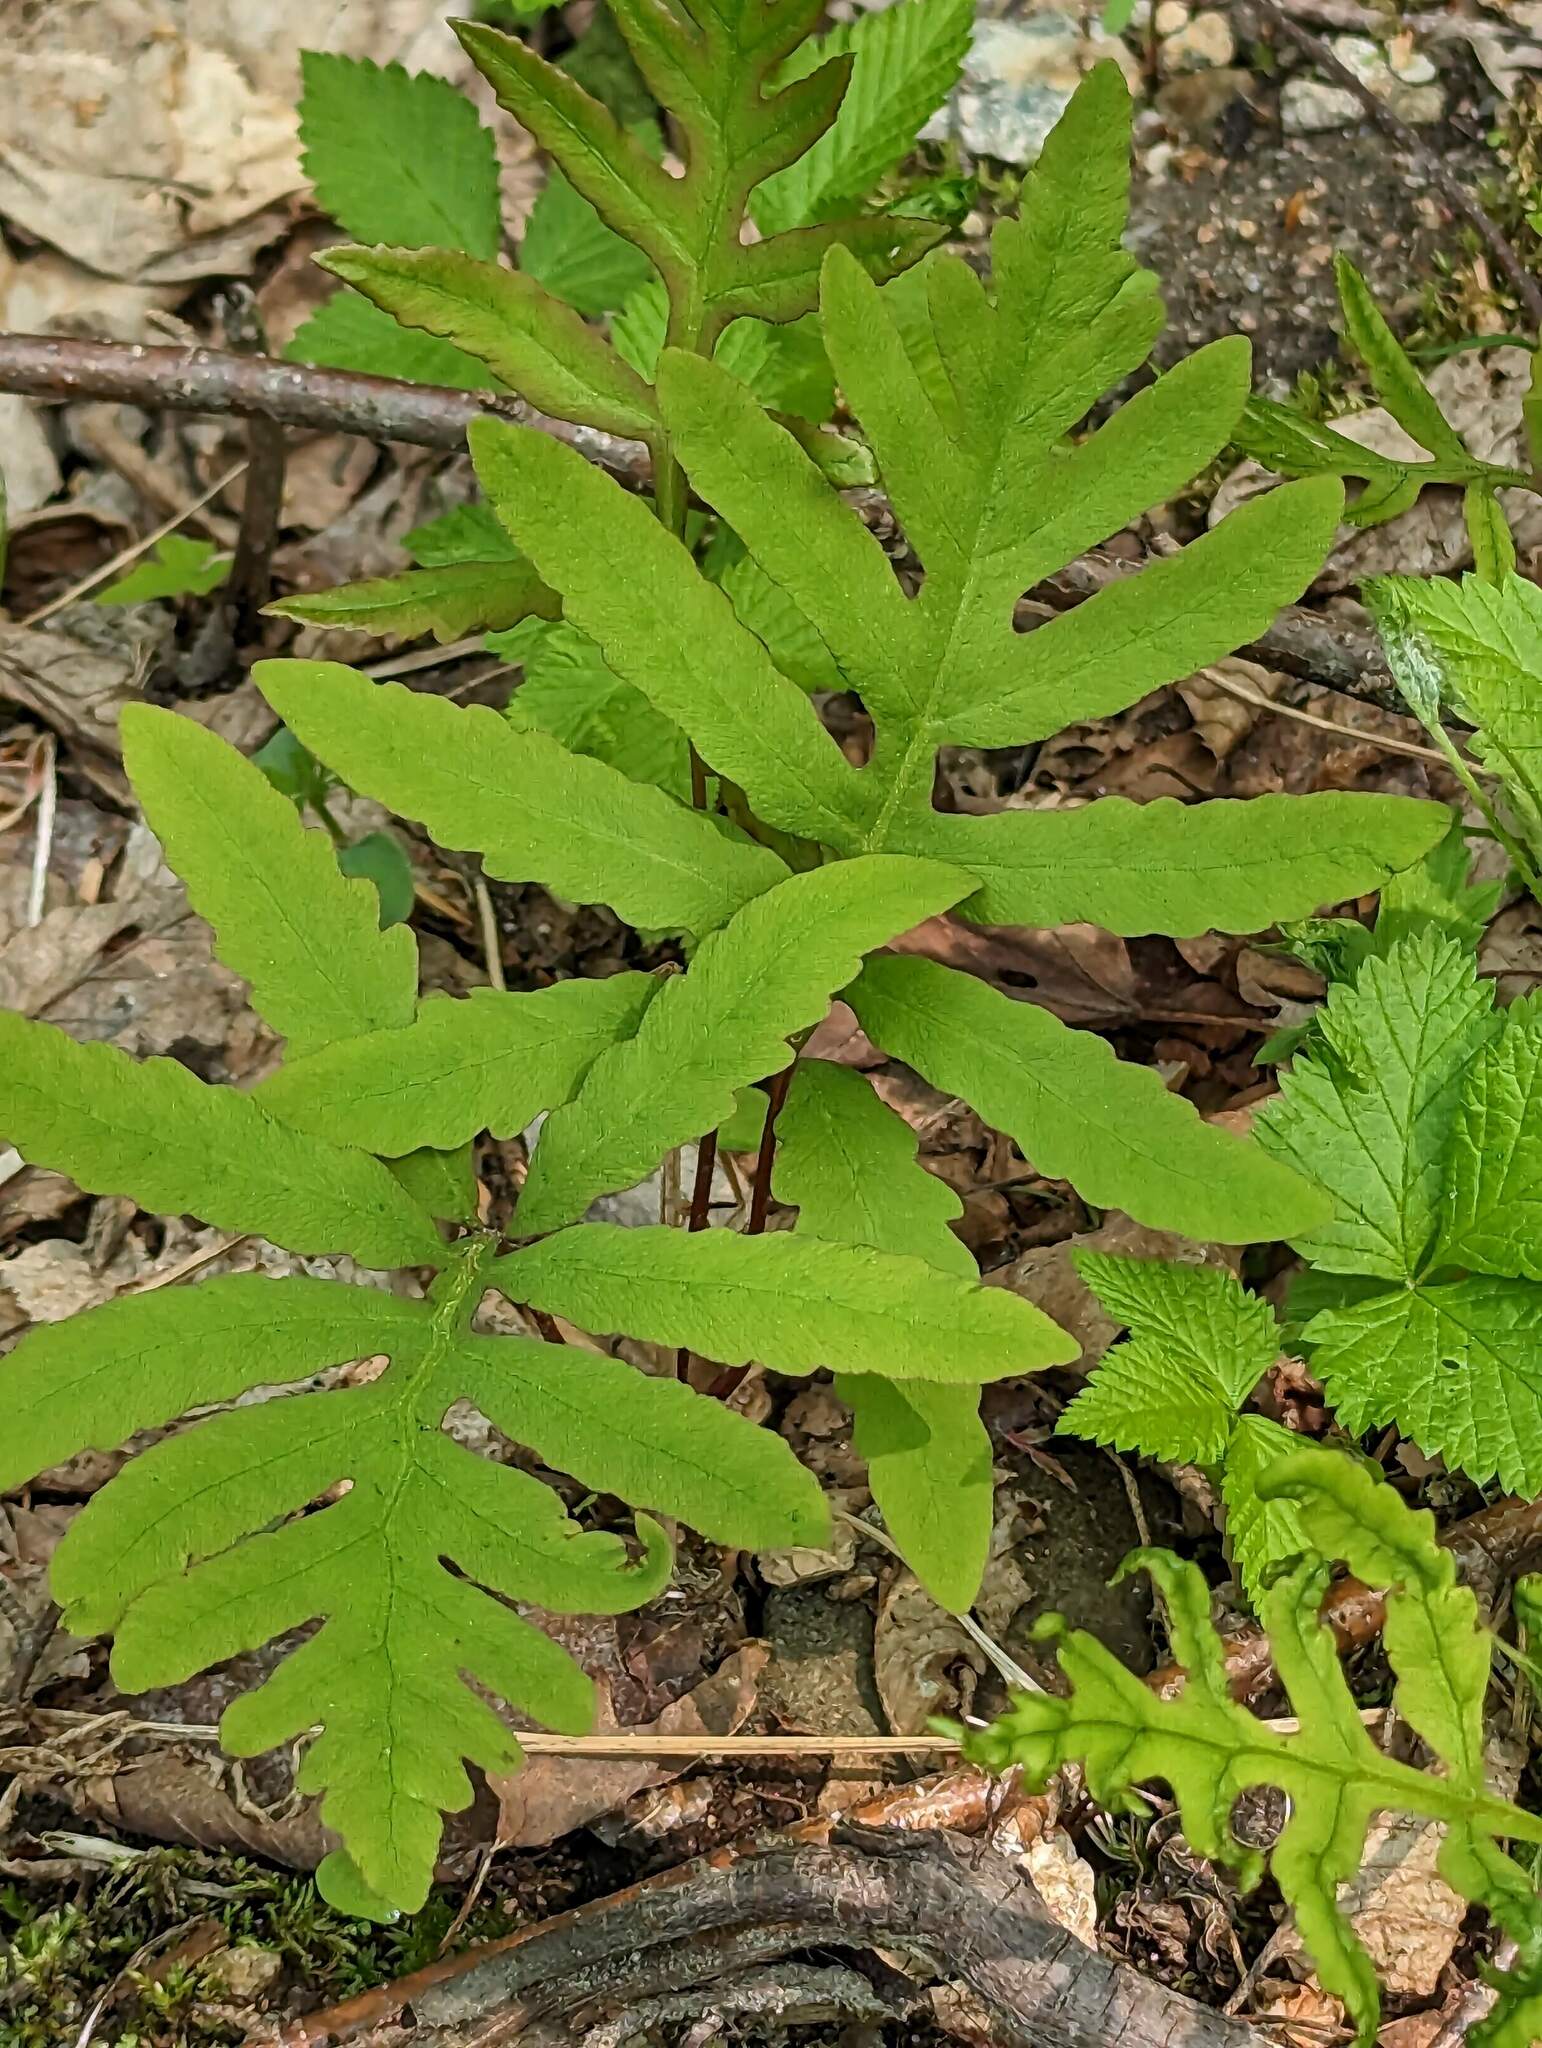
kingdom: Plantae
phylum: Tracheophyta
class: Polypodiopsida
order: Polypodiales
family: Onocleaceae
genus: Onoclea
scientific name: Onoclea sensibilis
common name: Sensitive fern
